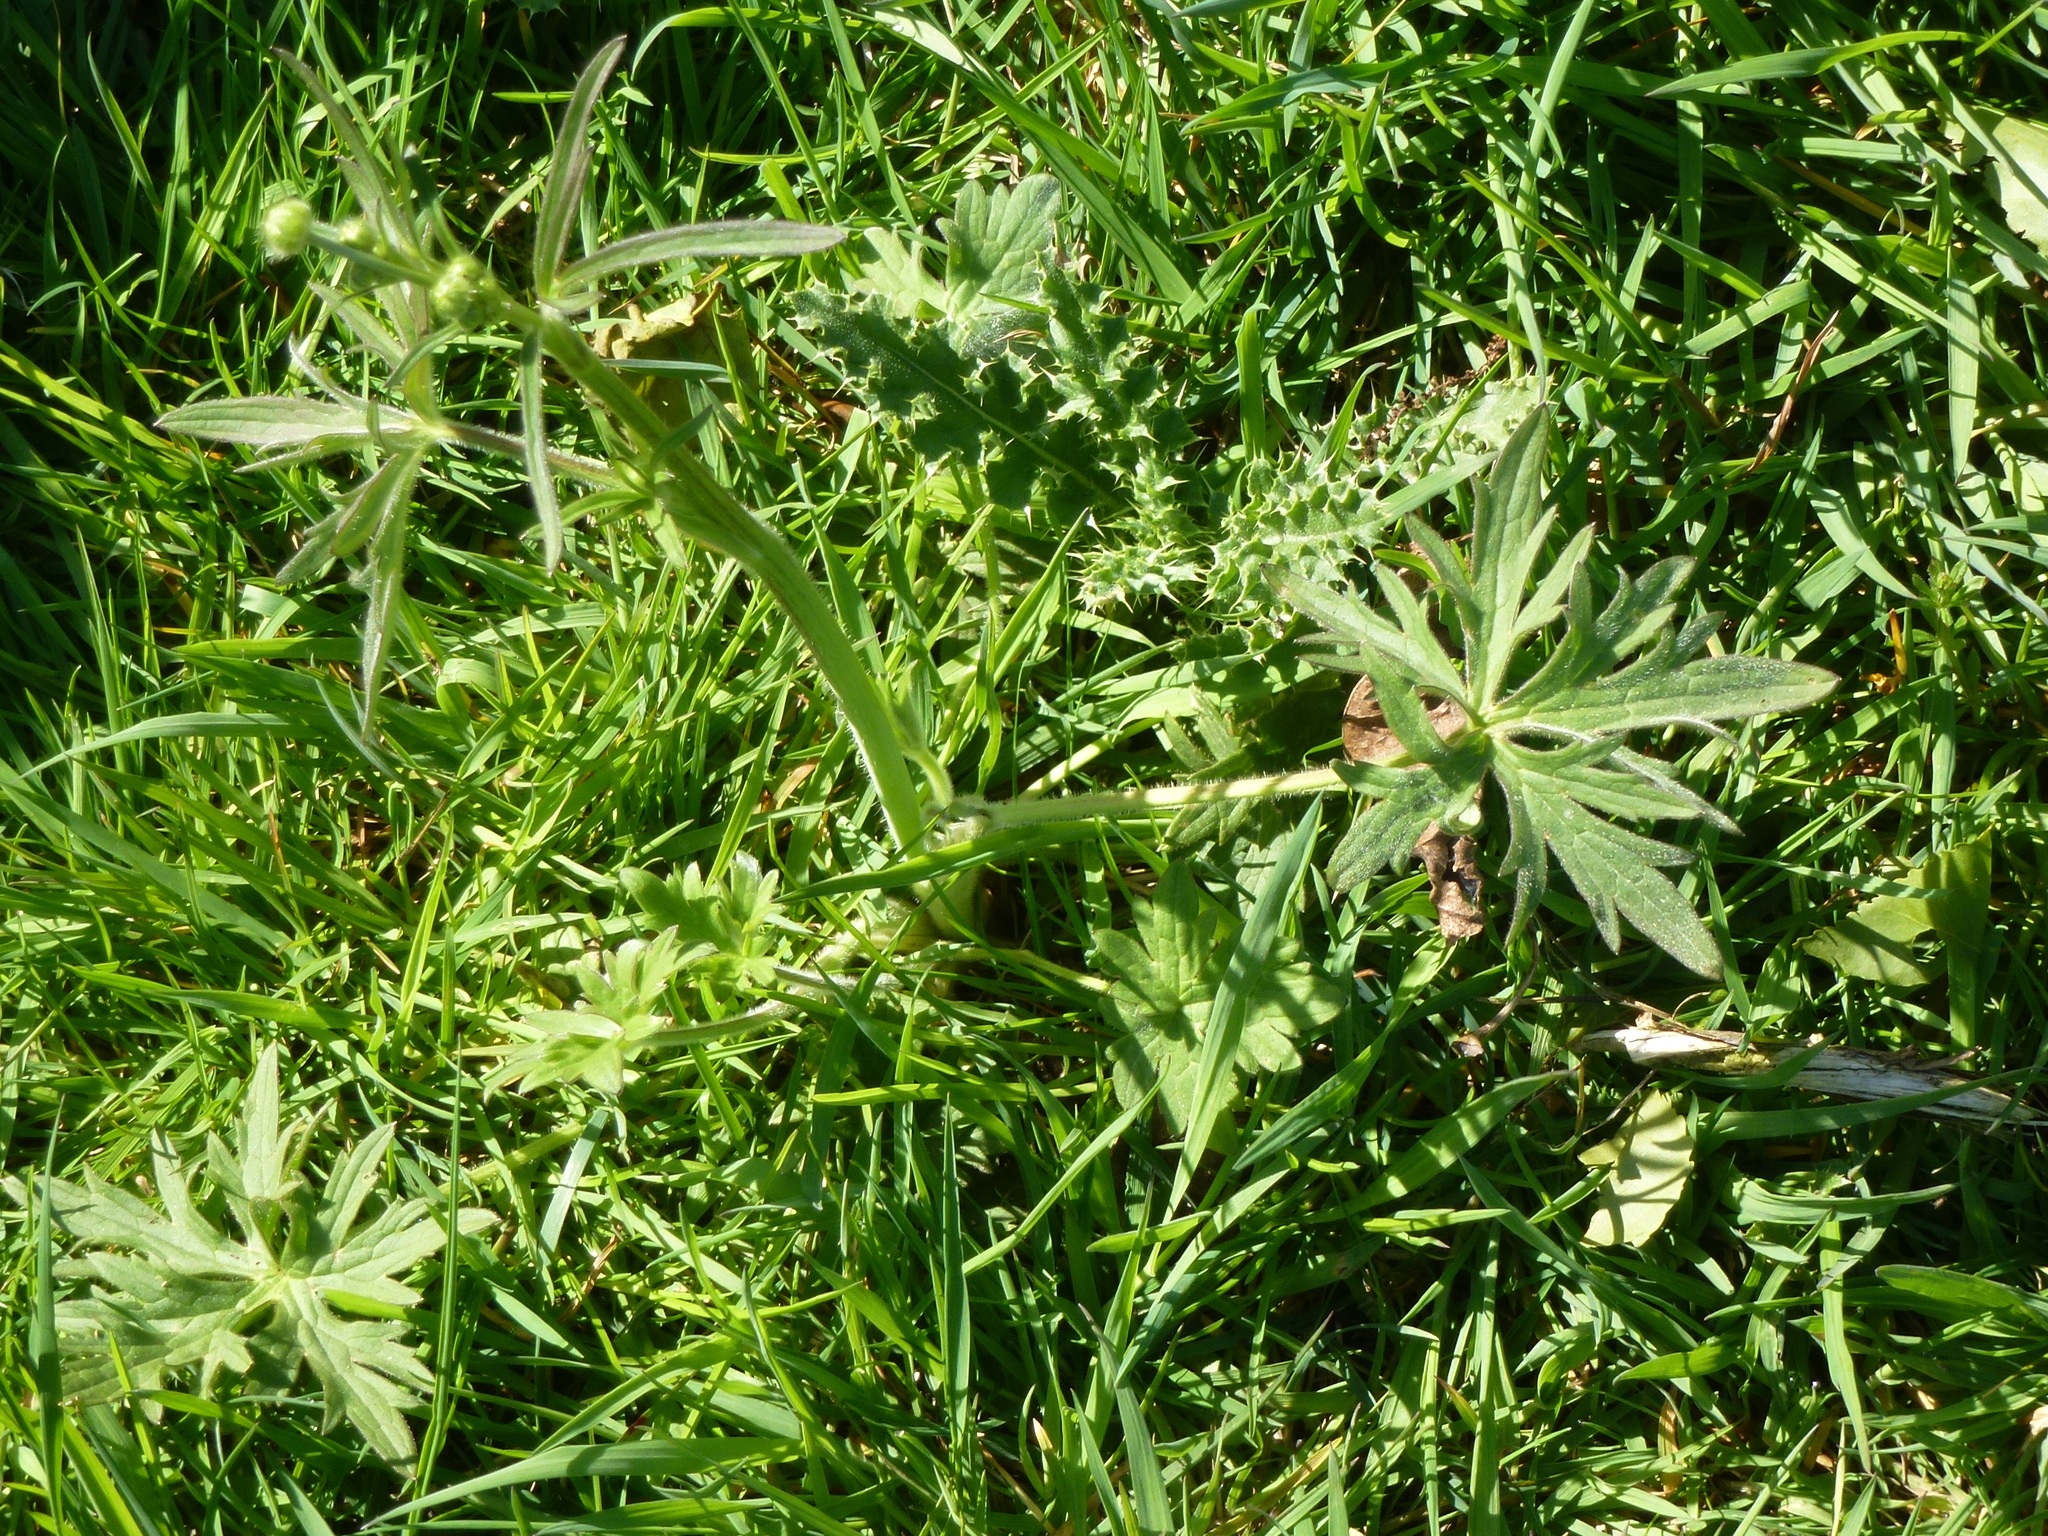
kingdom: Plantae
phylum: Tracheophyta
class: Magnoliopsida
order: Ranunculales
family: Ranunculaceae
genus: Ranunculus
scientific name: Ranunculus acris
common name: Meadow buttercup
